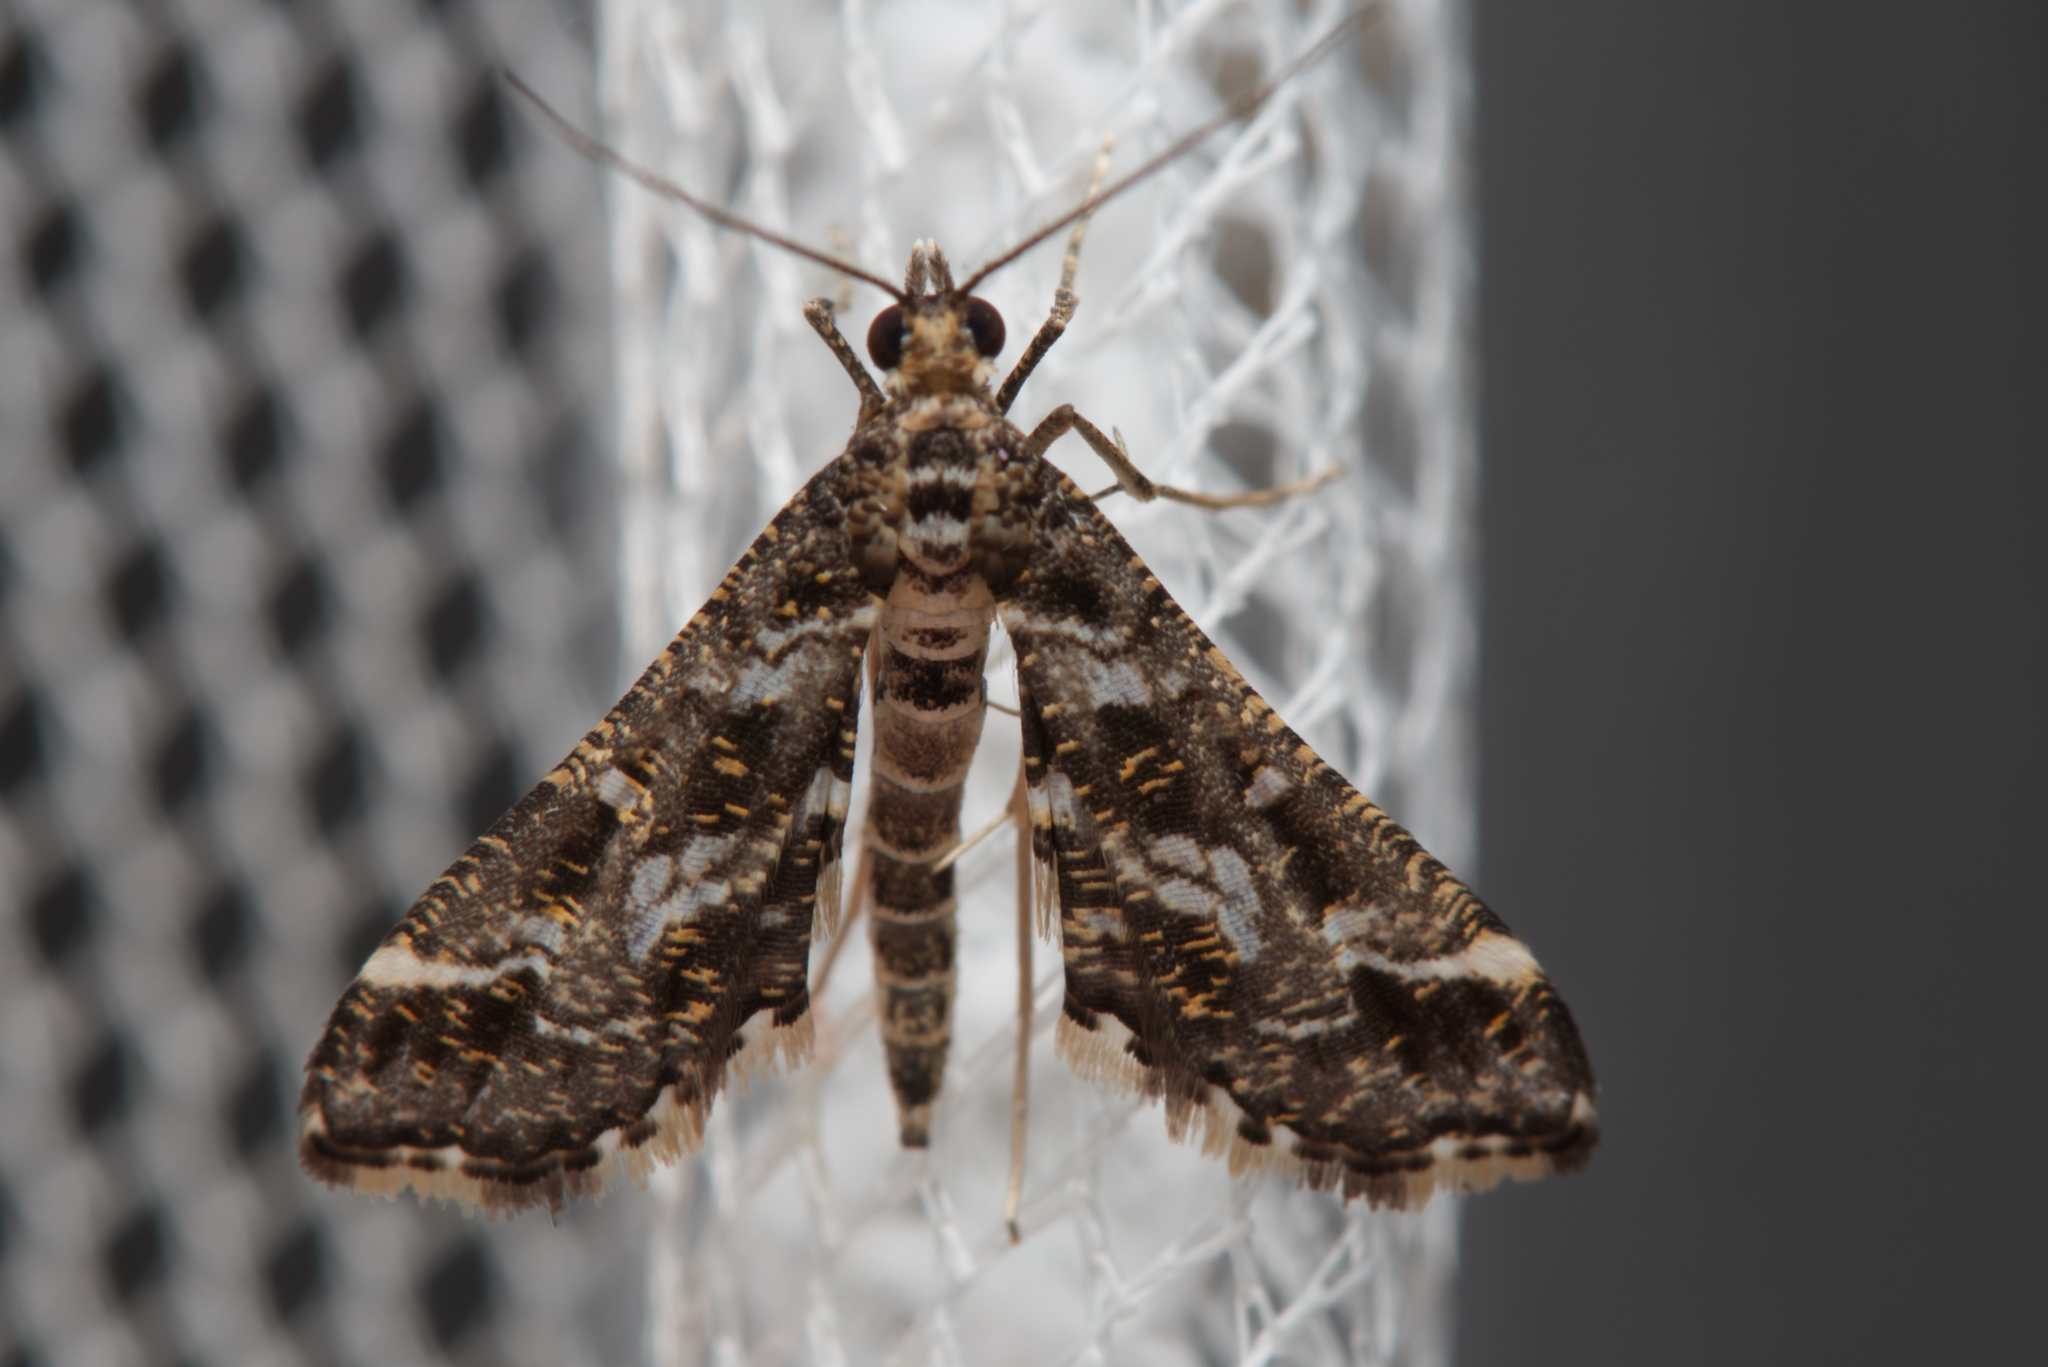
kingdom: Animalia
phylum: Arthropoda
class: Insecta
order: Lepidoptera
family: Crambidae
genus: Diasemiopsis
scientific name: Diasemiopsis ramburialis
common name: Vagrant china-mark
